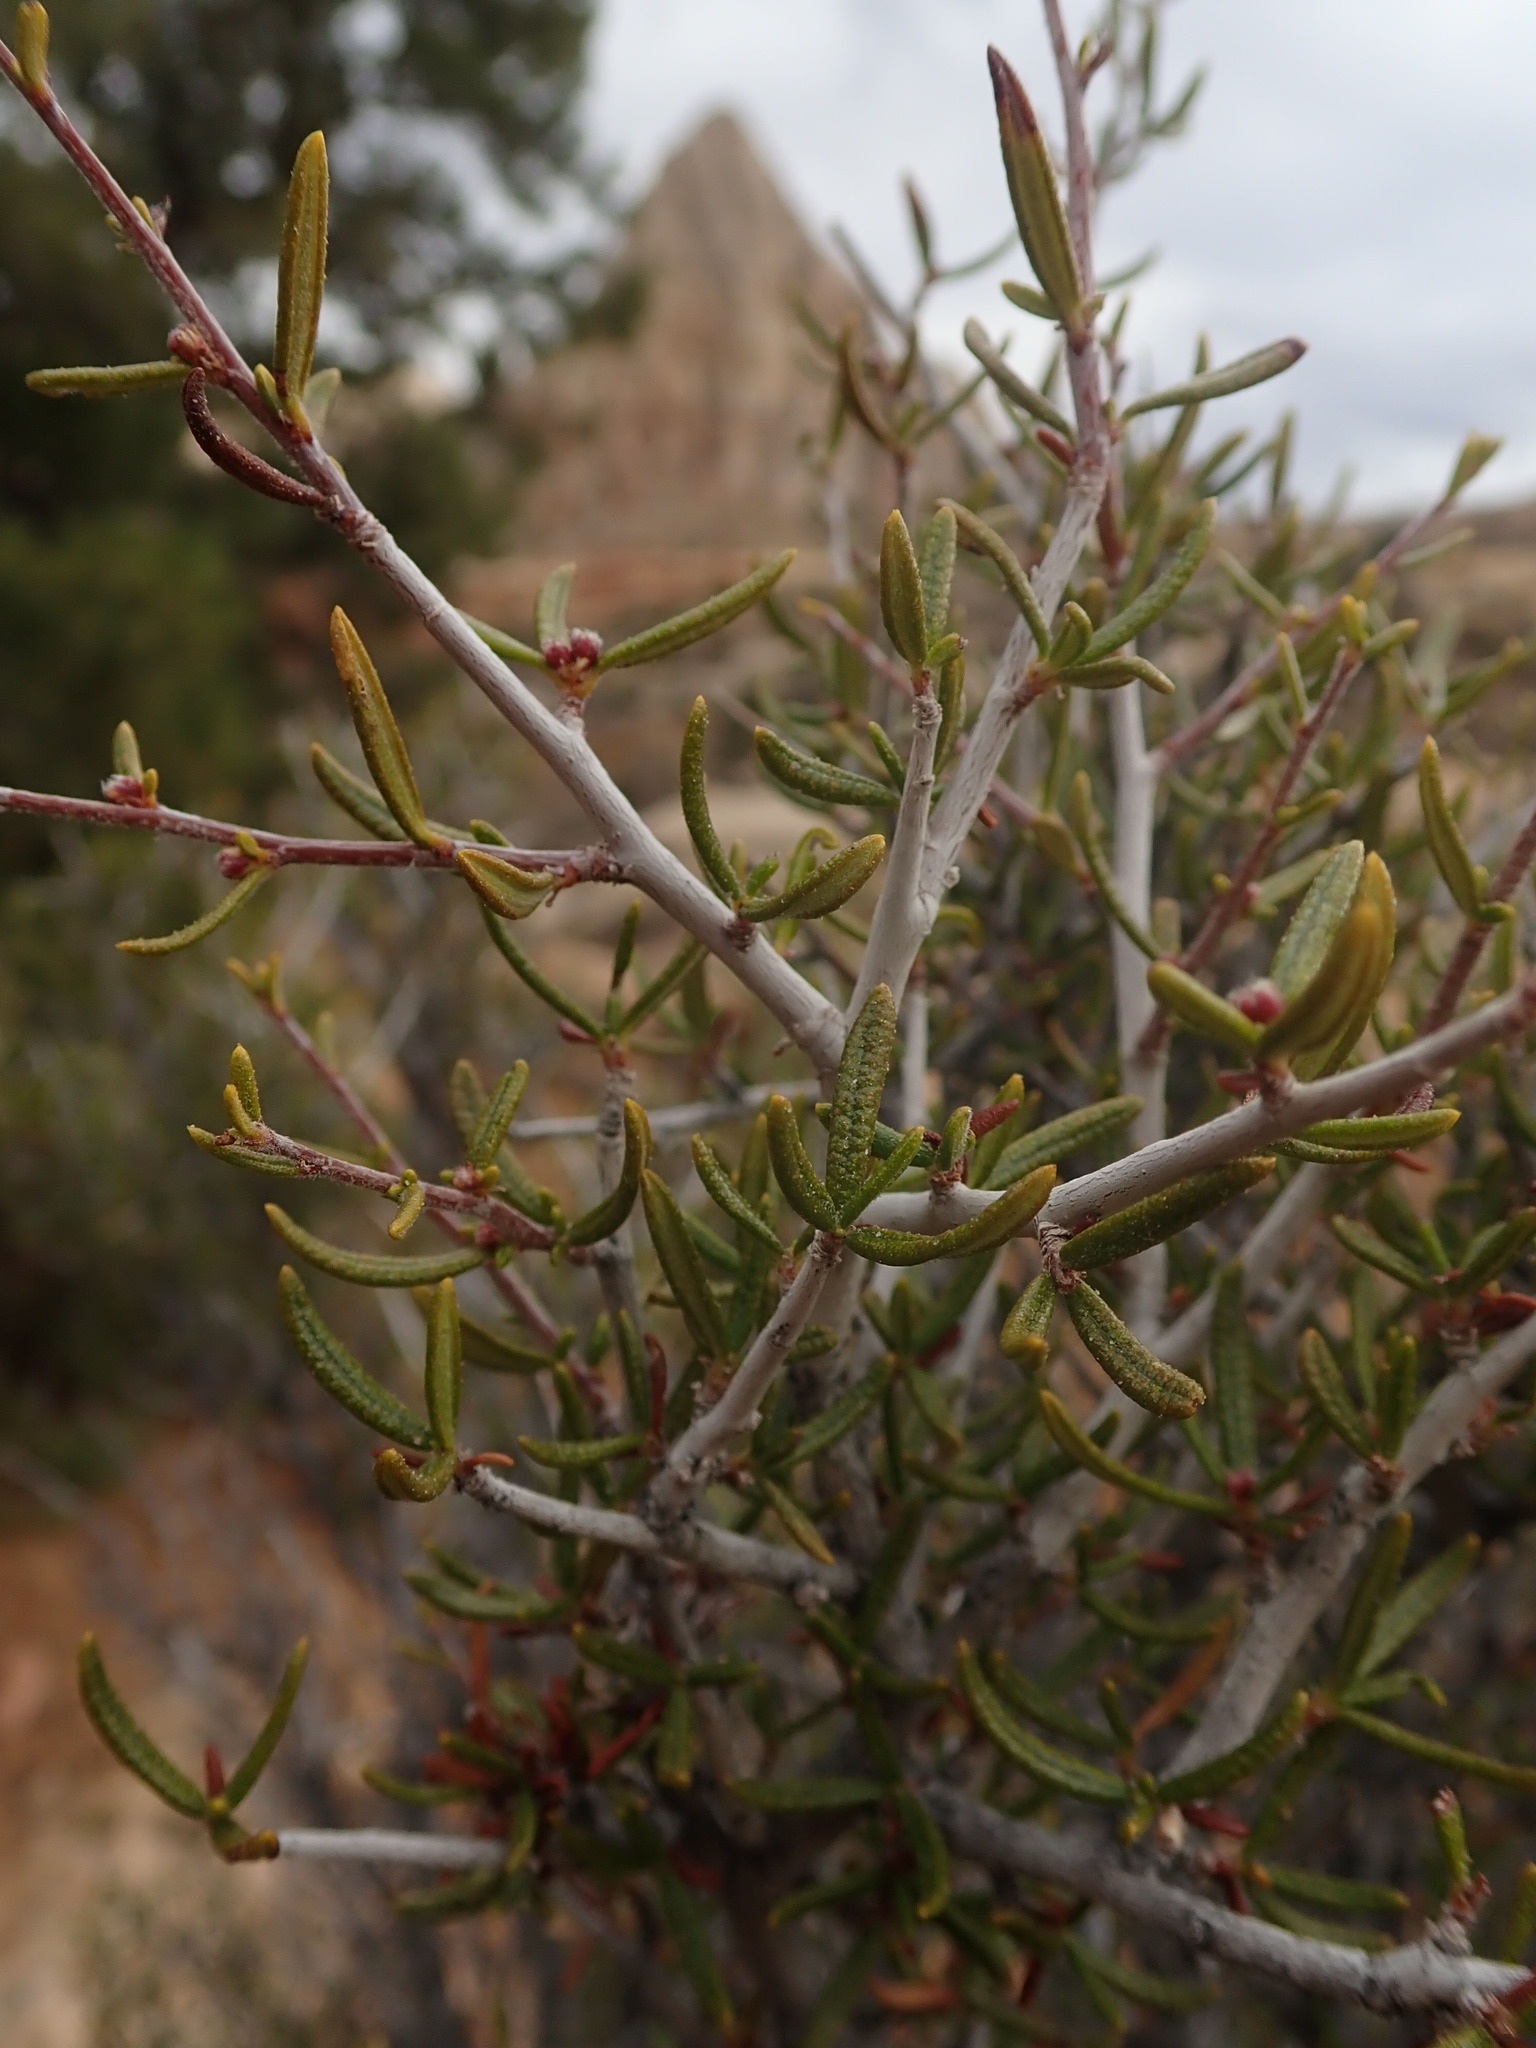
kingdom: Plantae
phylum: Tracheophyta
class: Magnoliopsida
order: Rosales
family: Rosaceae
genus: Cercocarpus
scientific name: Cercocarpus ledifolius
